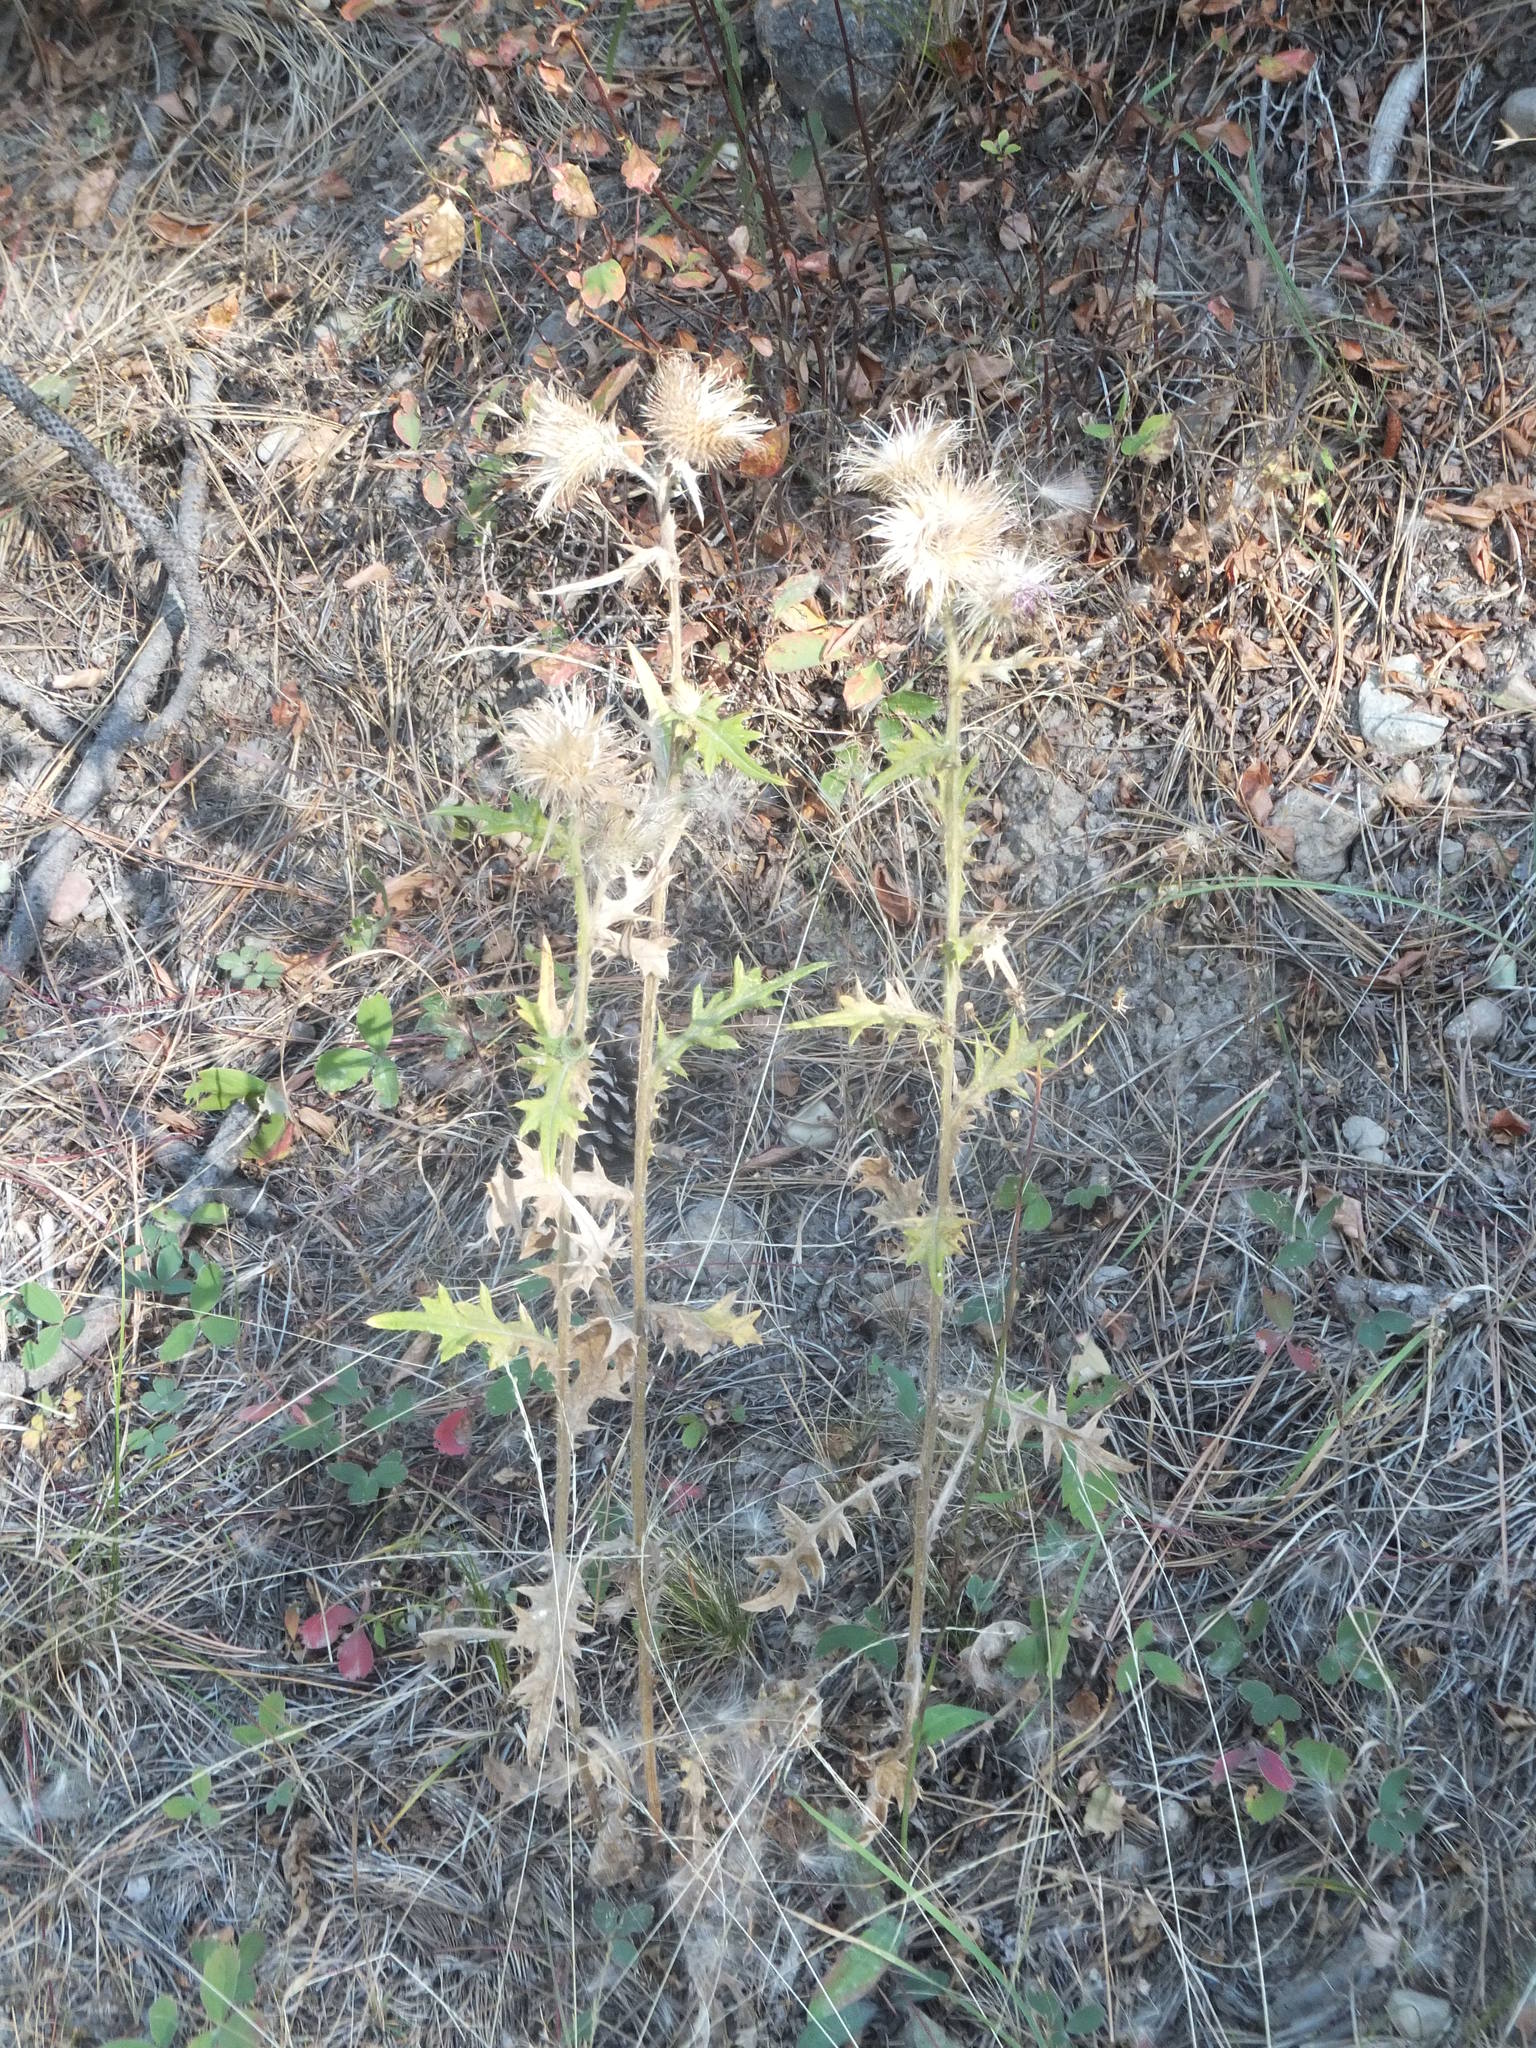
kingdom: Plantae
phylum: Tracheophyta
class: Magnoliopsida
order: Asterales
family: Asteraceae
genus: Cirsium
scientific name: Cirsium vulgare
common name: Bull thistle
